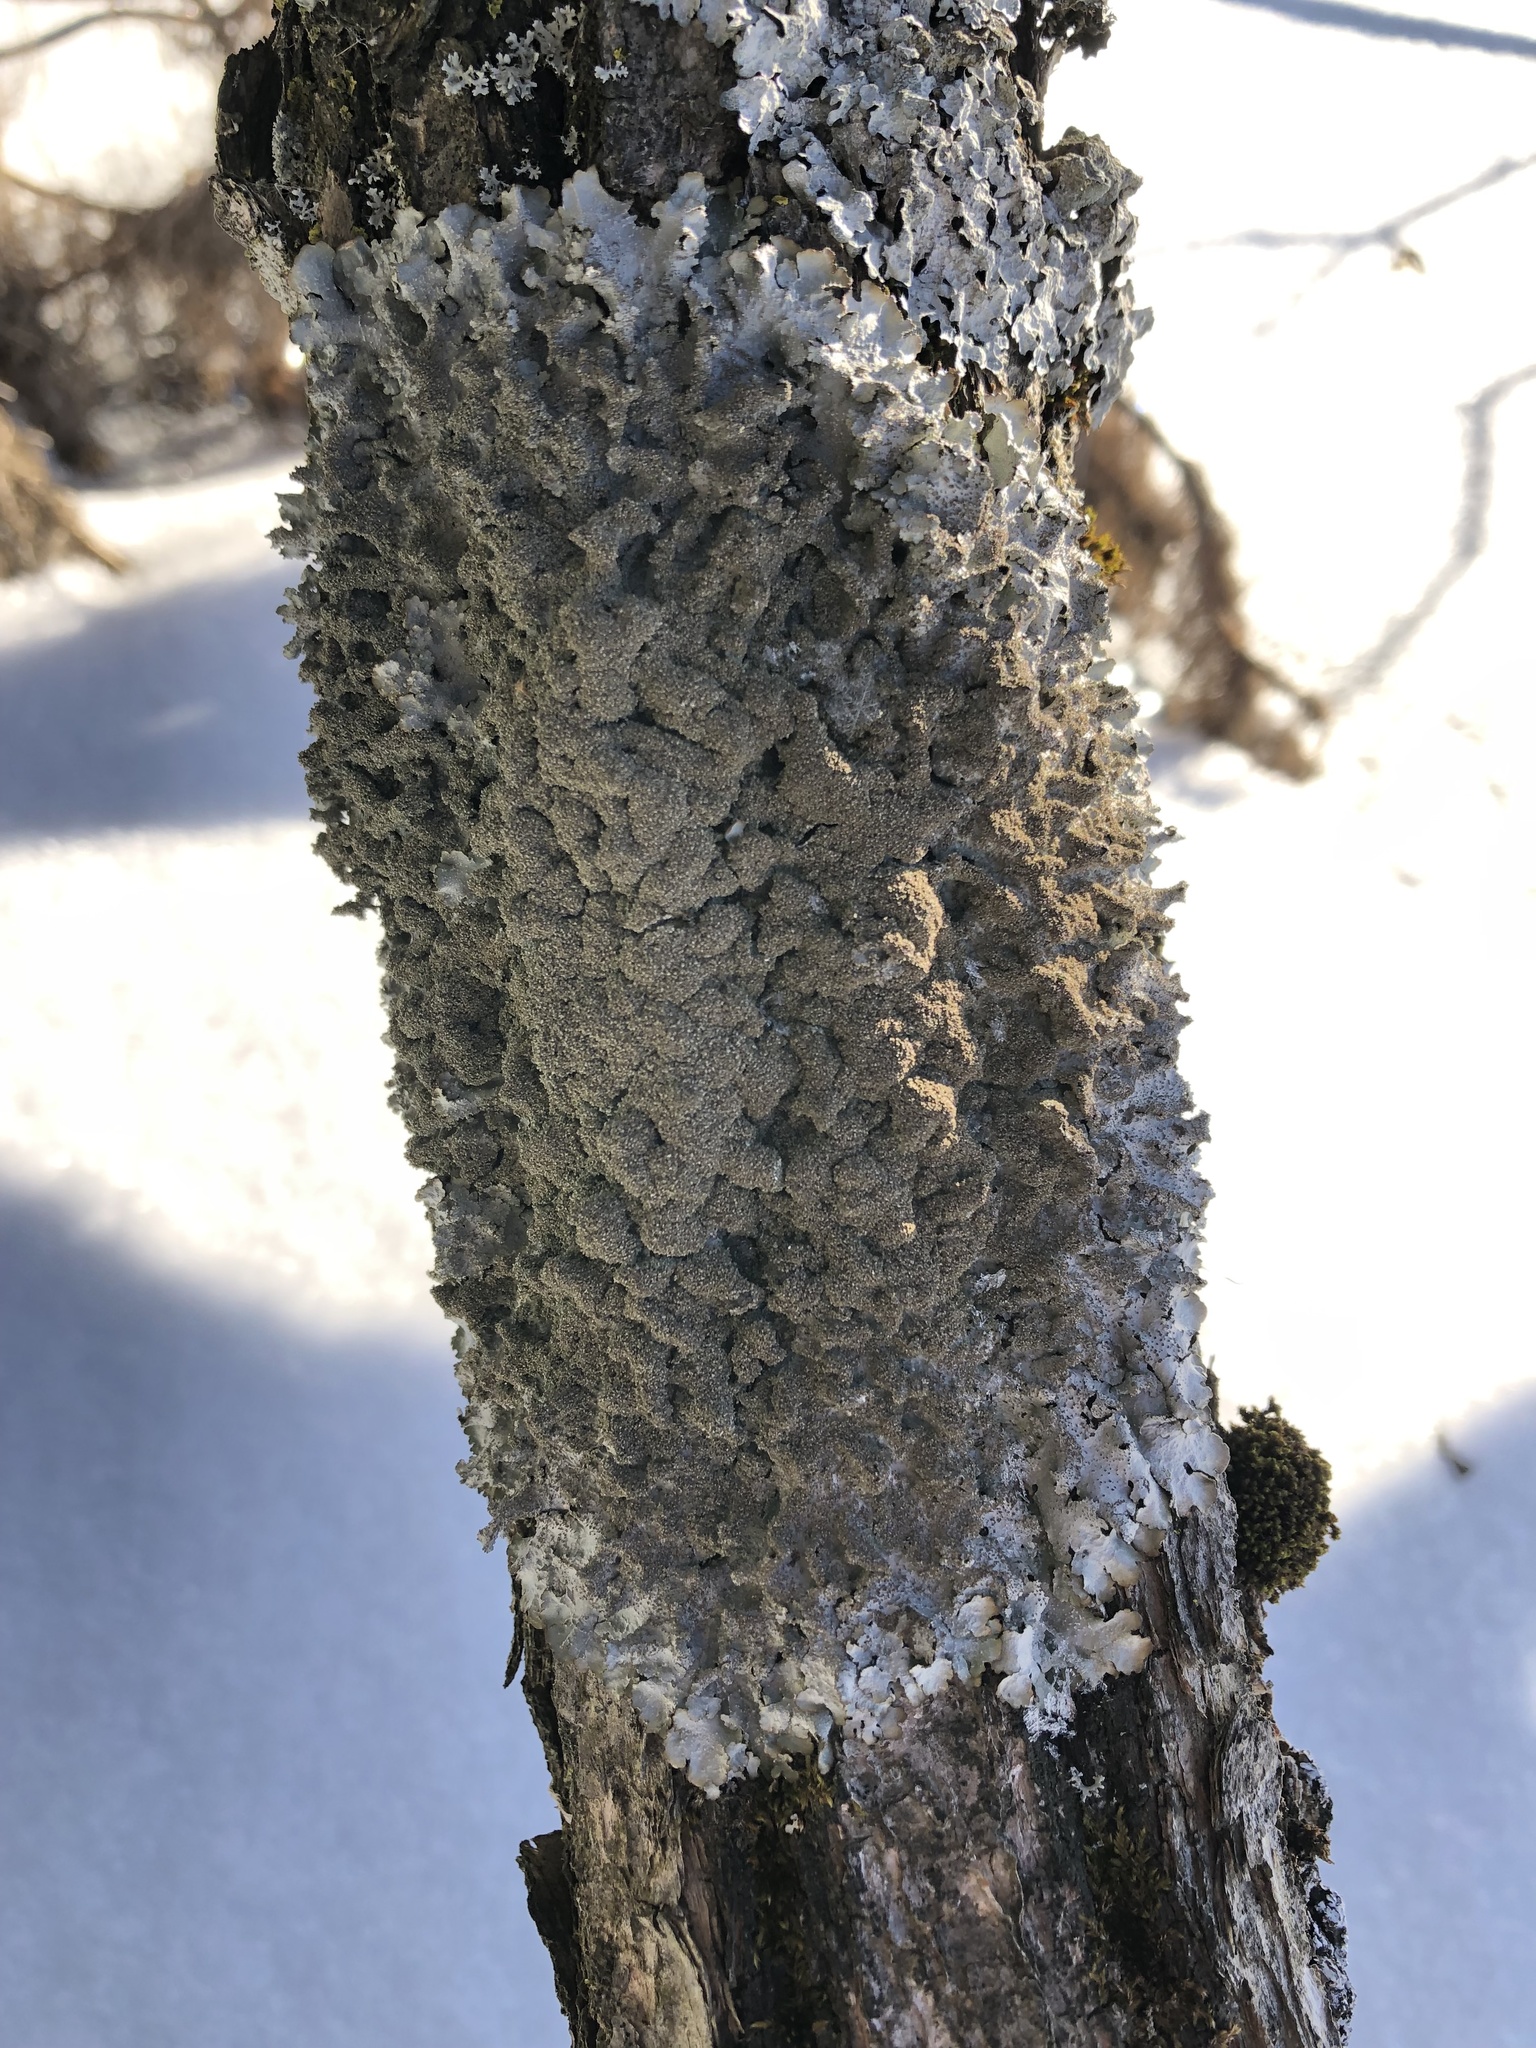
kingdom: Fungi
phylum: Ascomycota
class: Lecanoromycetes
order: Lecanorales
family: Parmeliaceae
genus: Punctelia
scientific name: Punctelia rudecta
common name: Rough speckled shield lichen
